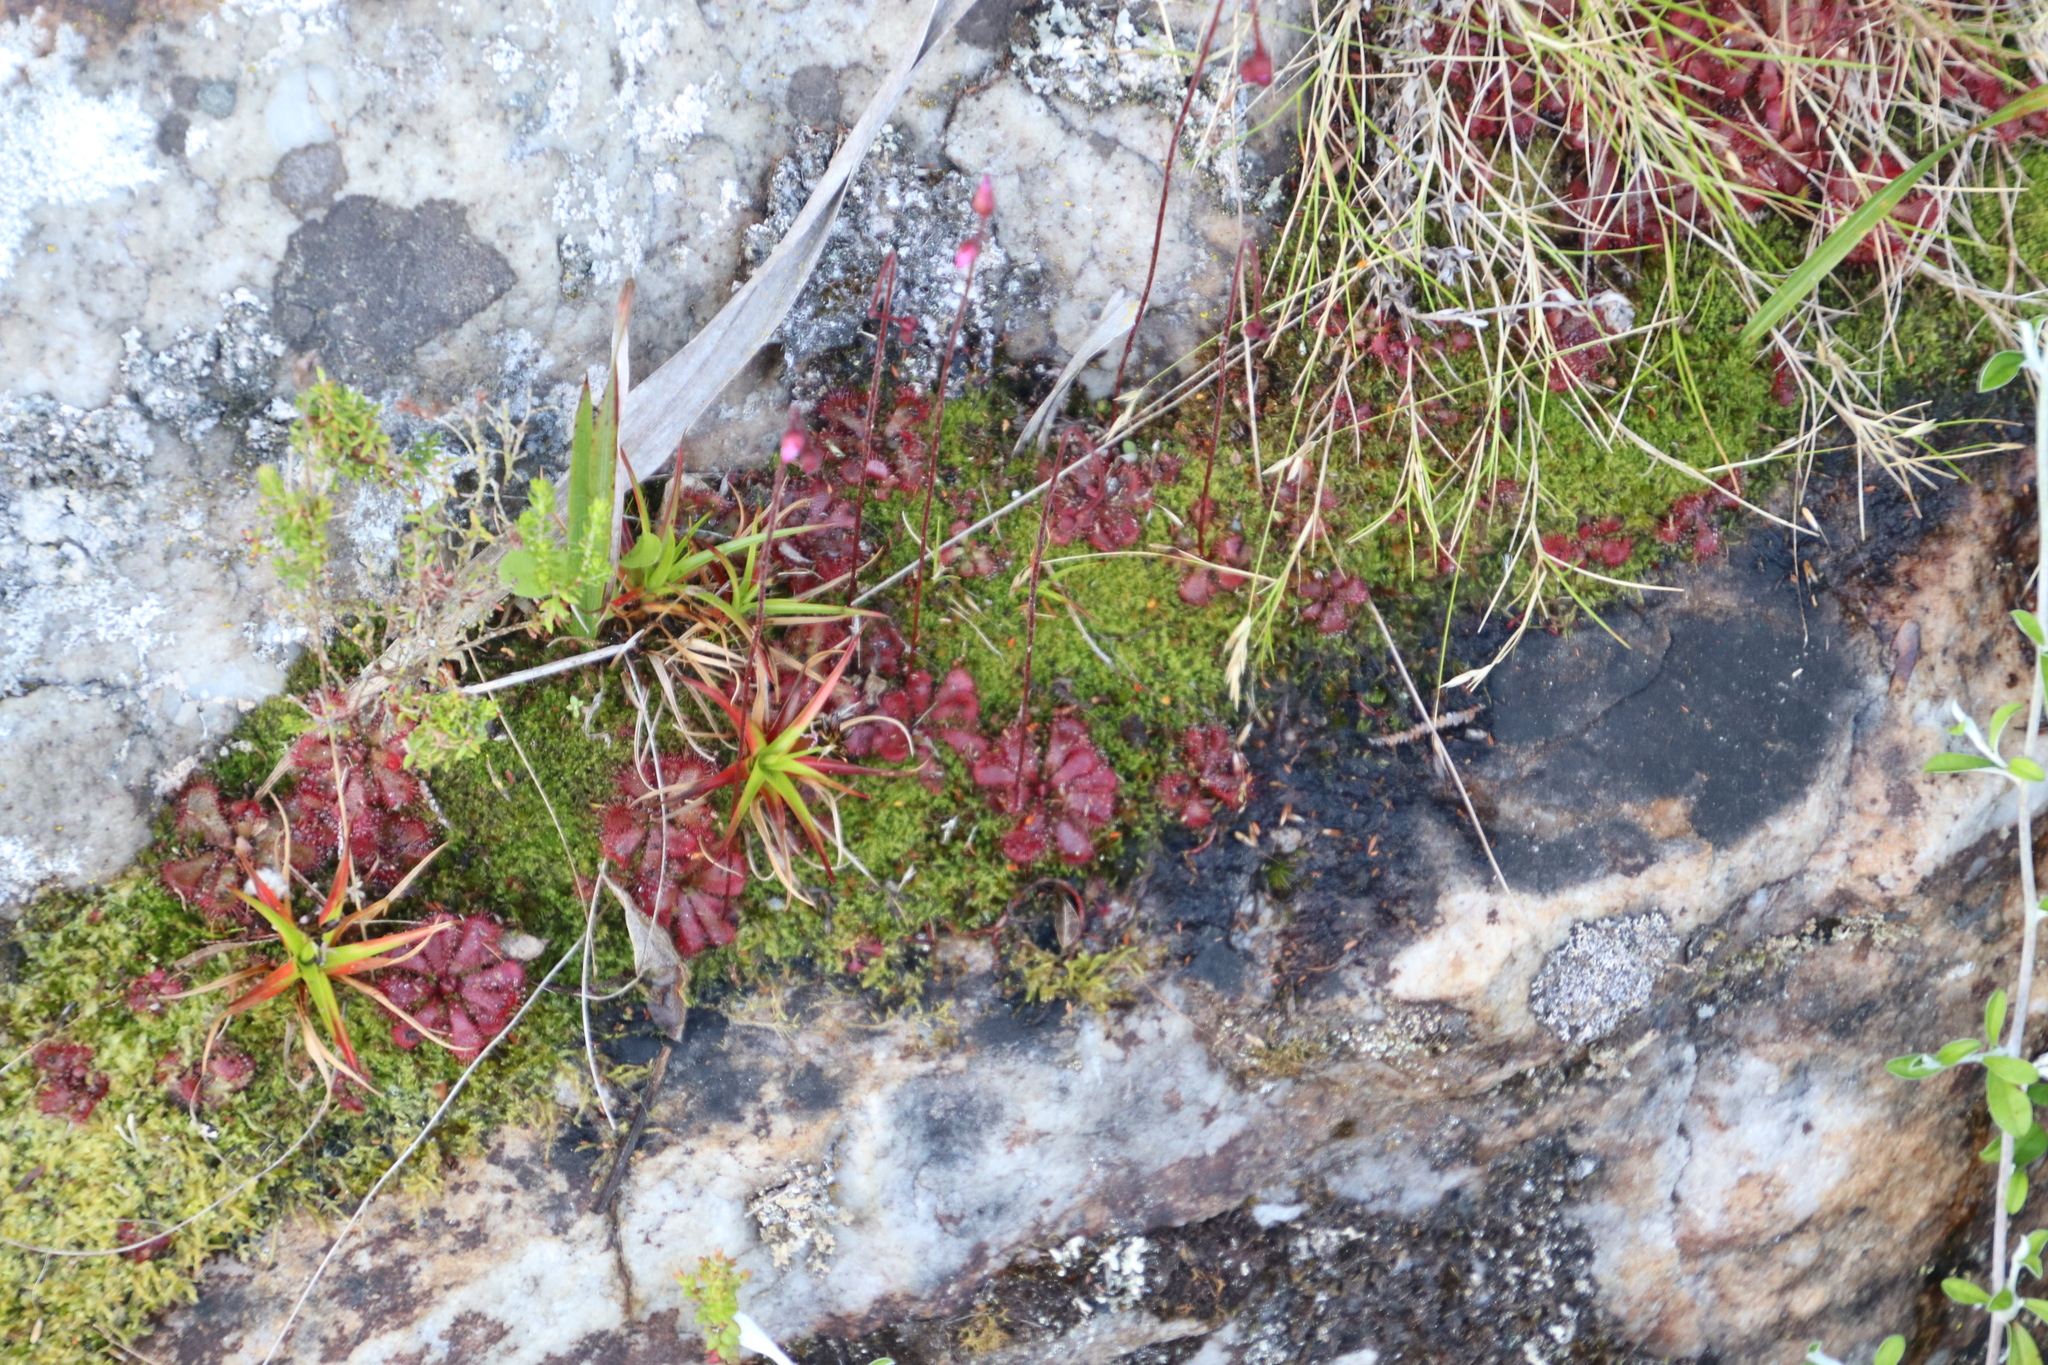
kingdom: Plantae
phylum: Tracheophyta
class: Magnoliopsida
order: Caryophyllales
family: Droseraceae
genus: Drosera
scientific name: Drosera aliciae
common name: Alice sundew
